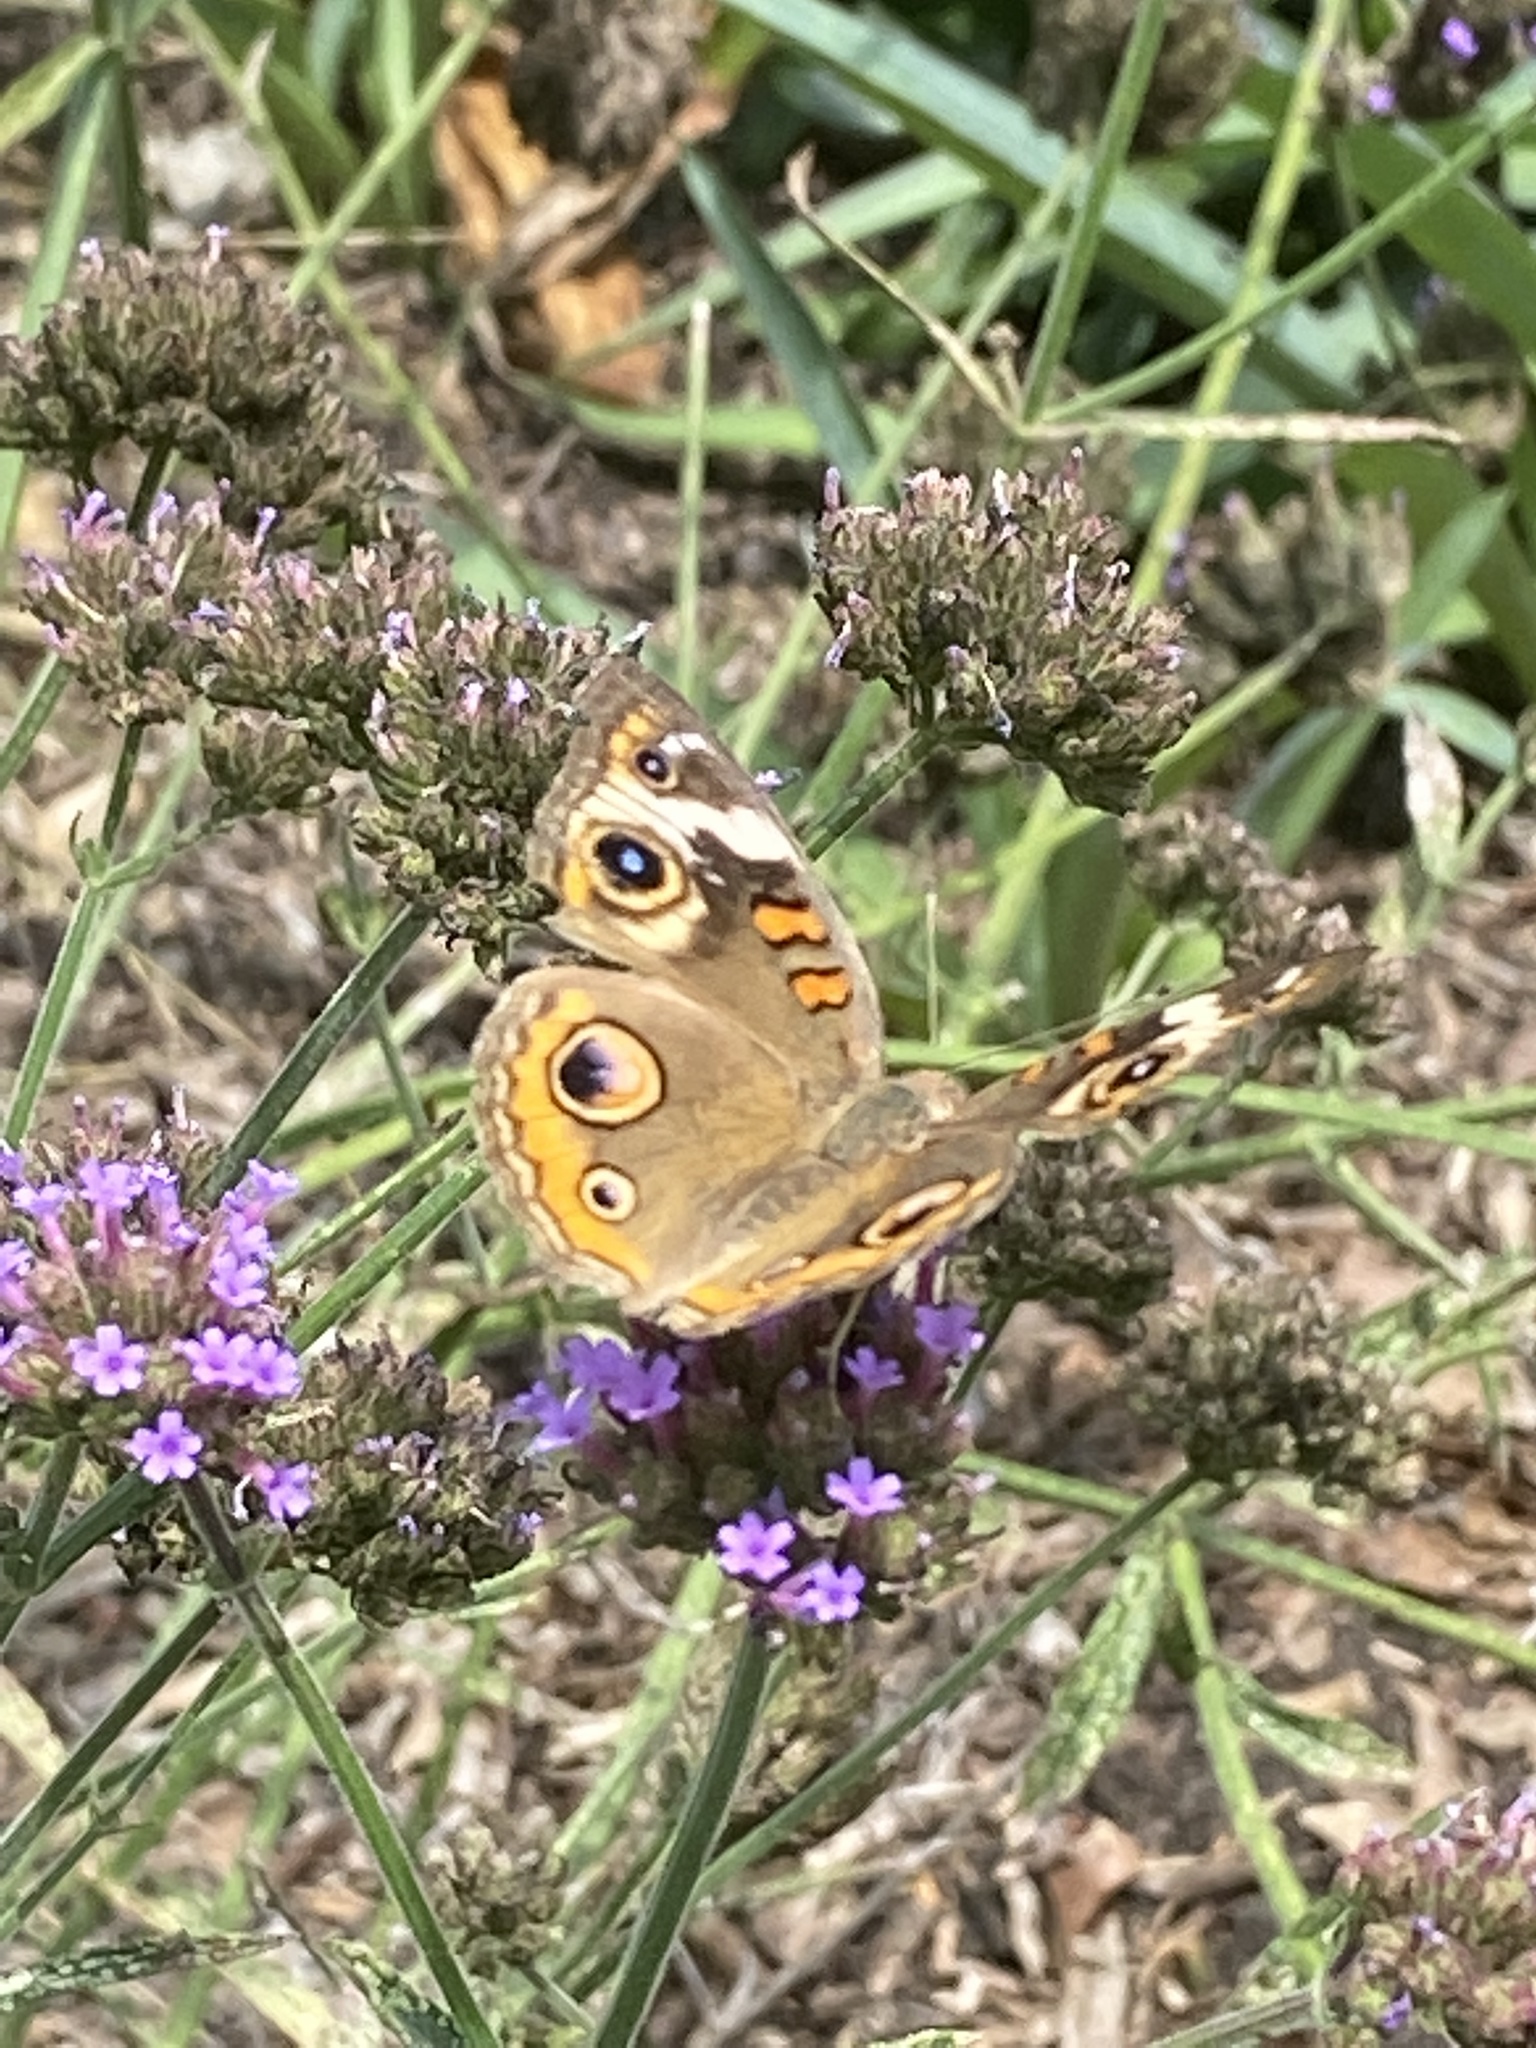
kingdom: Animalia
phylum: Arthropoda
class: Insecta
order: Lepidoptera
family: Nymphalidae
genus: Junonia
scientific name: Junonia coenia
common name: Common buckeye
